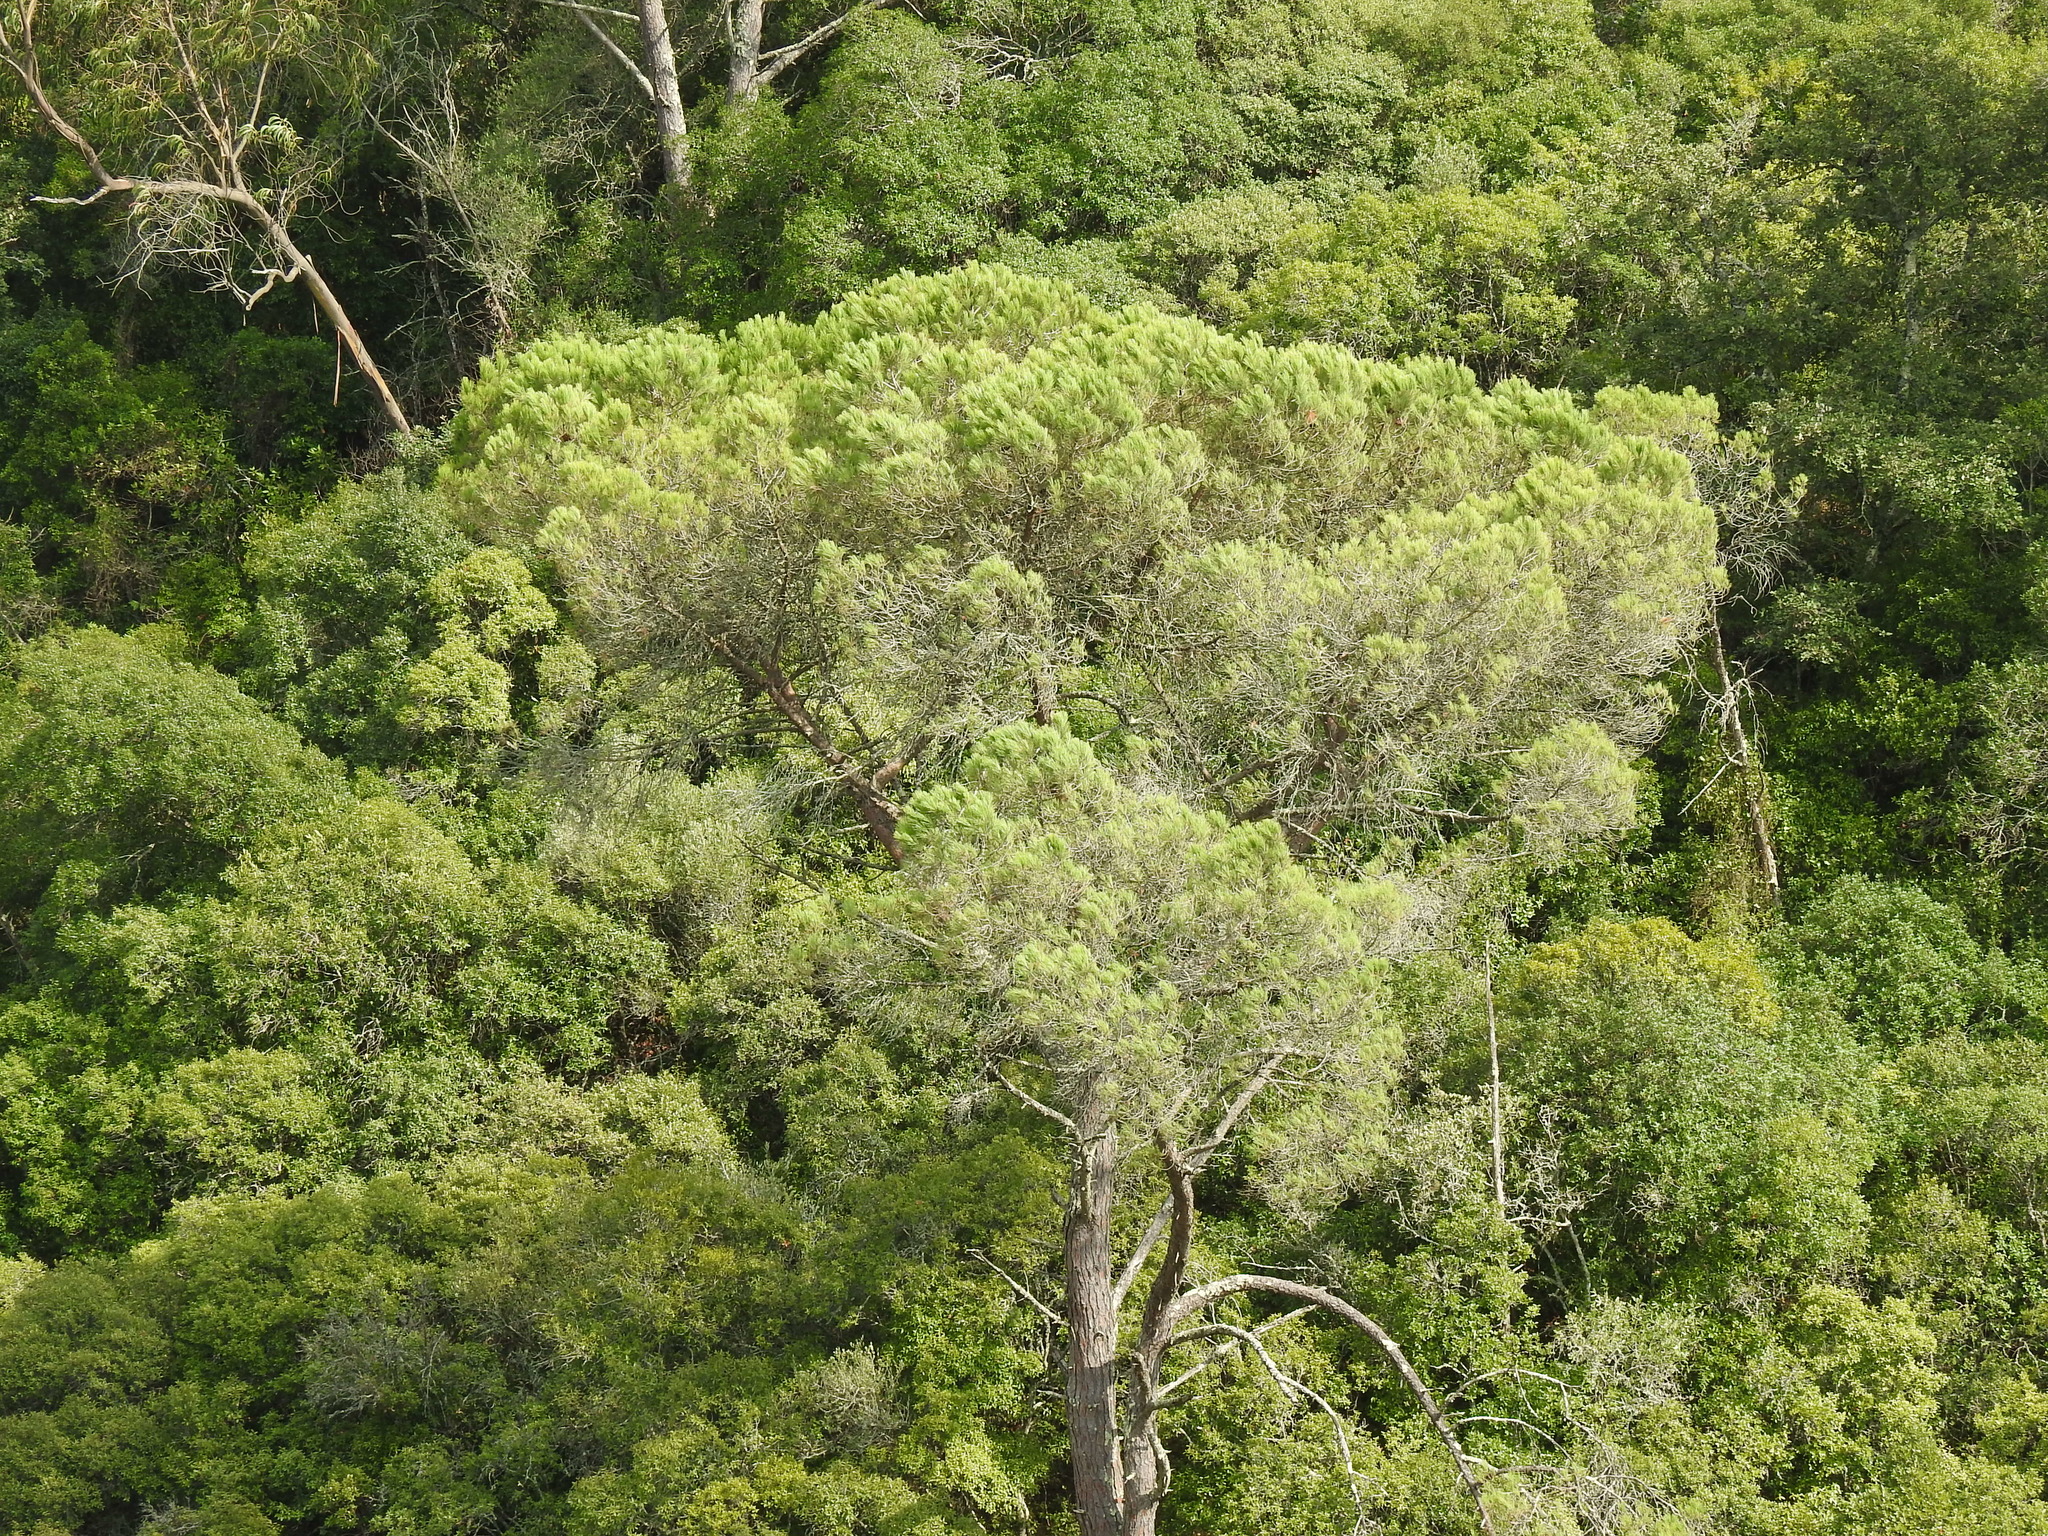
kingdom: Plantae
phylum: Tracheophyta
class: Pinopsida
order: Pinales
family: Pinaceae
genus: Pinus
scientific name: Pinus pinea
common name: Italian stone pine
